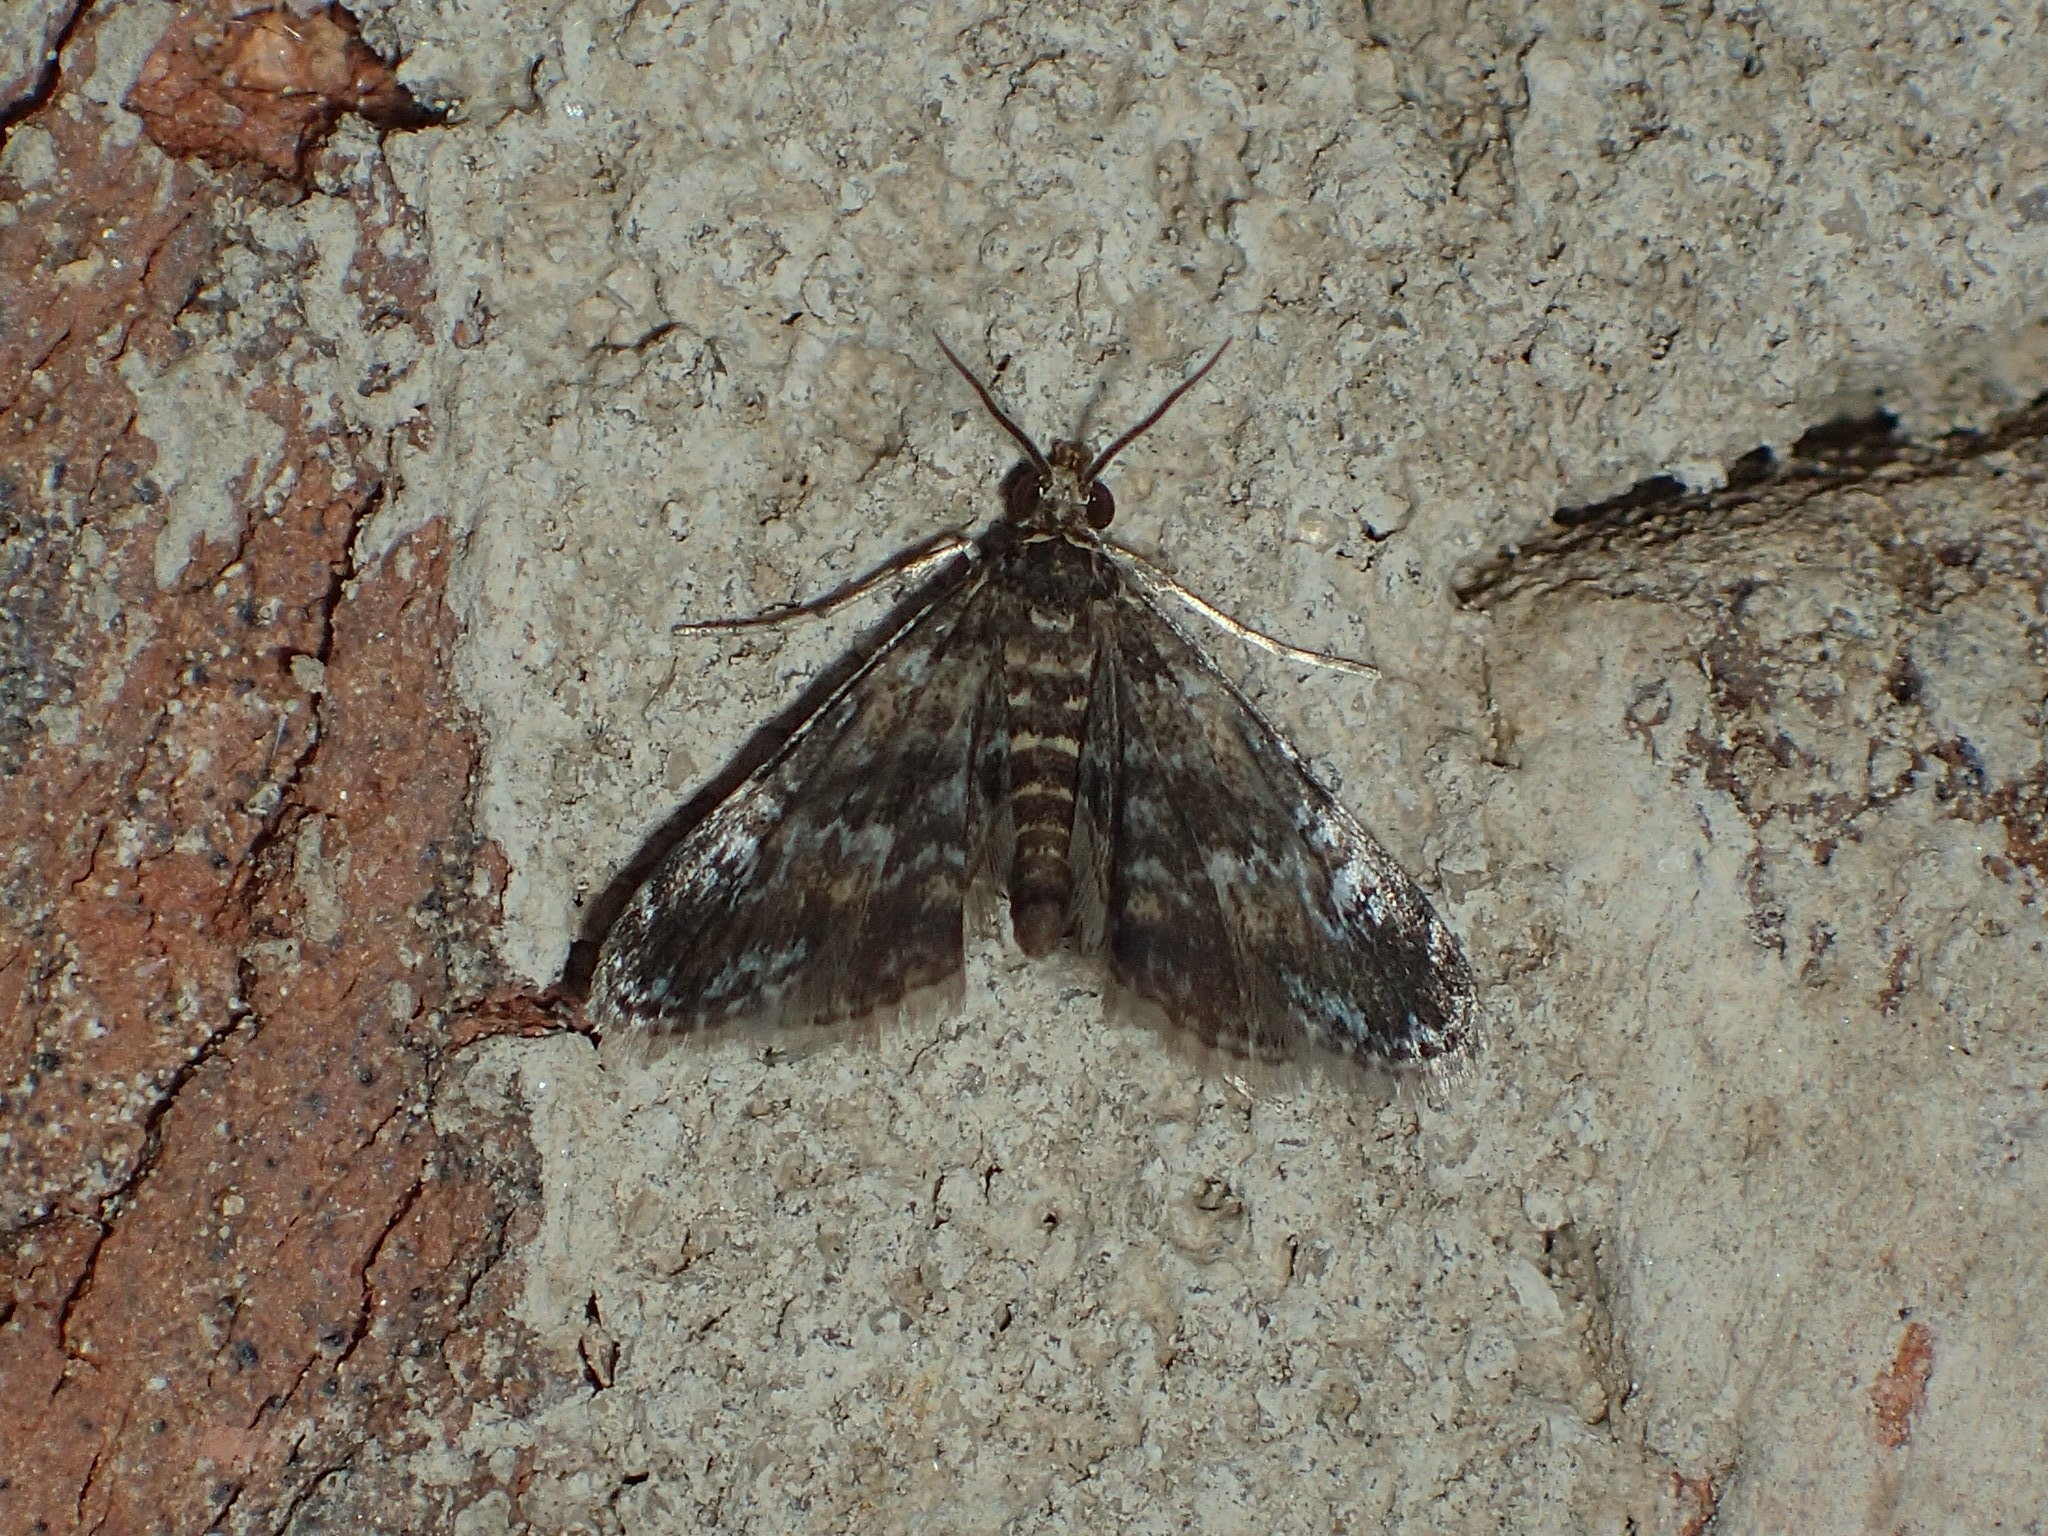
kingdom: Animalia
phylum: Arthropoda
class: Insecta
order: Lepidoptera
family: Crambidae
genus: Elophila
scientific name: Elophila obliteralis
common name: Waterlily leafcutter moth
